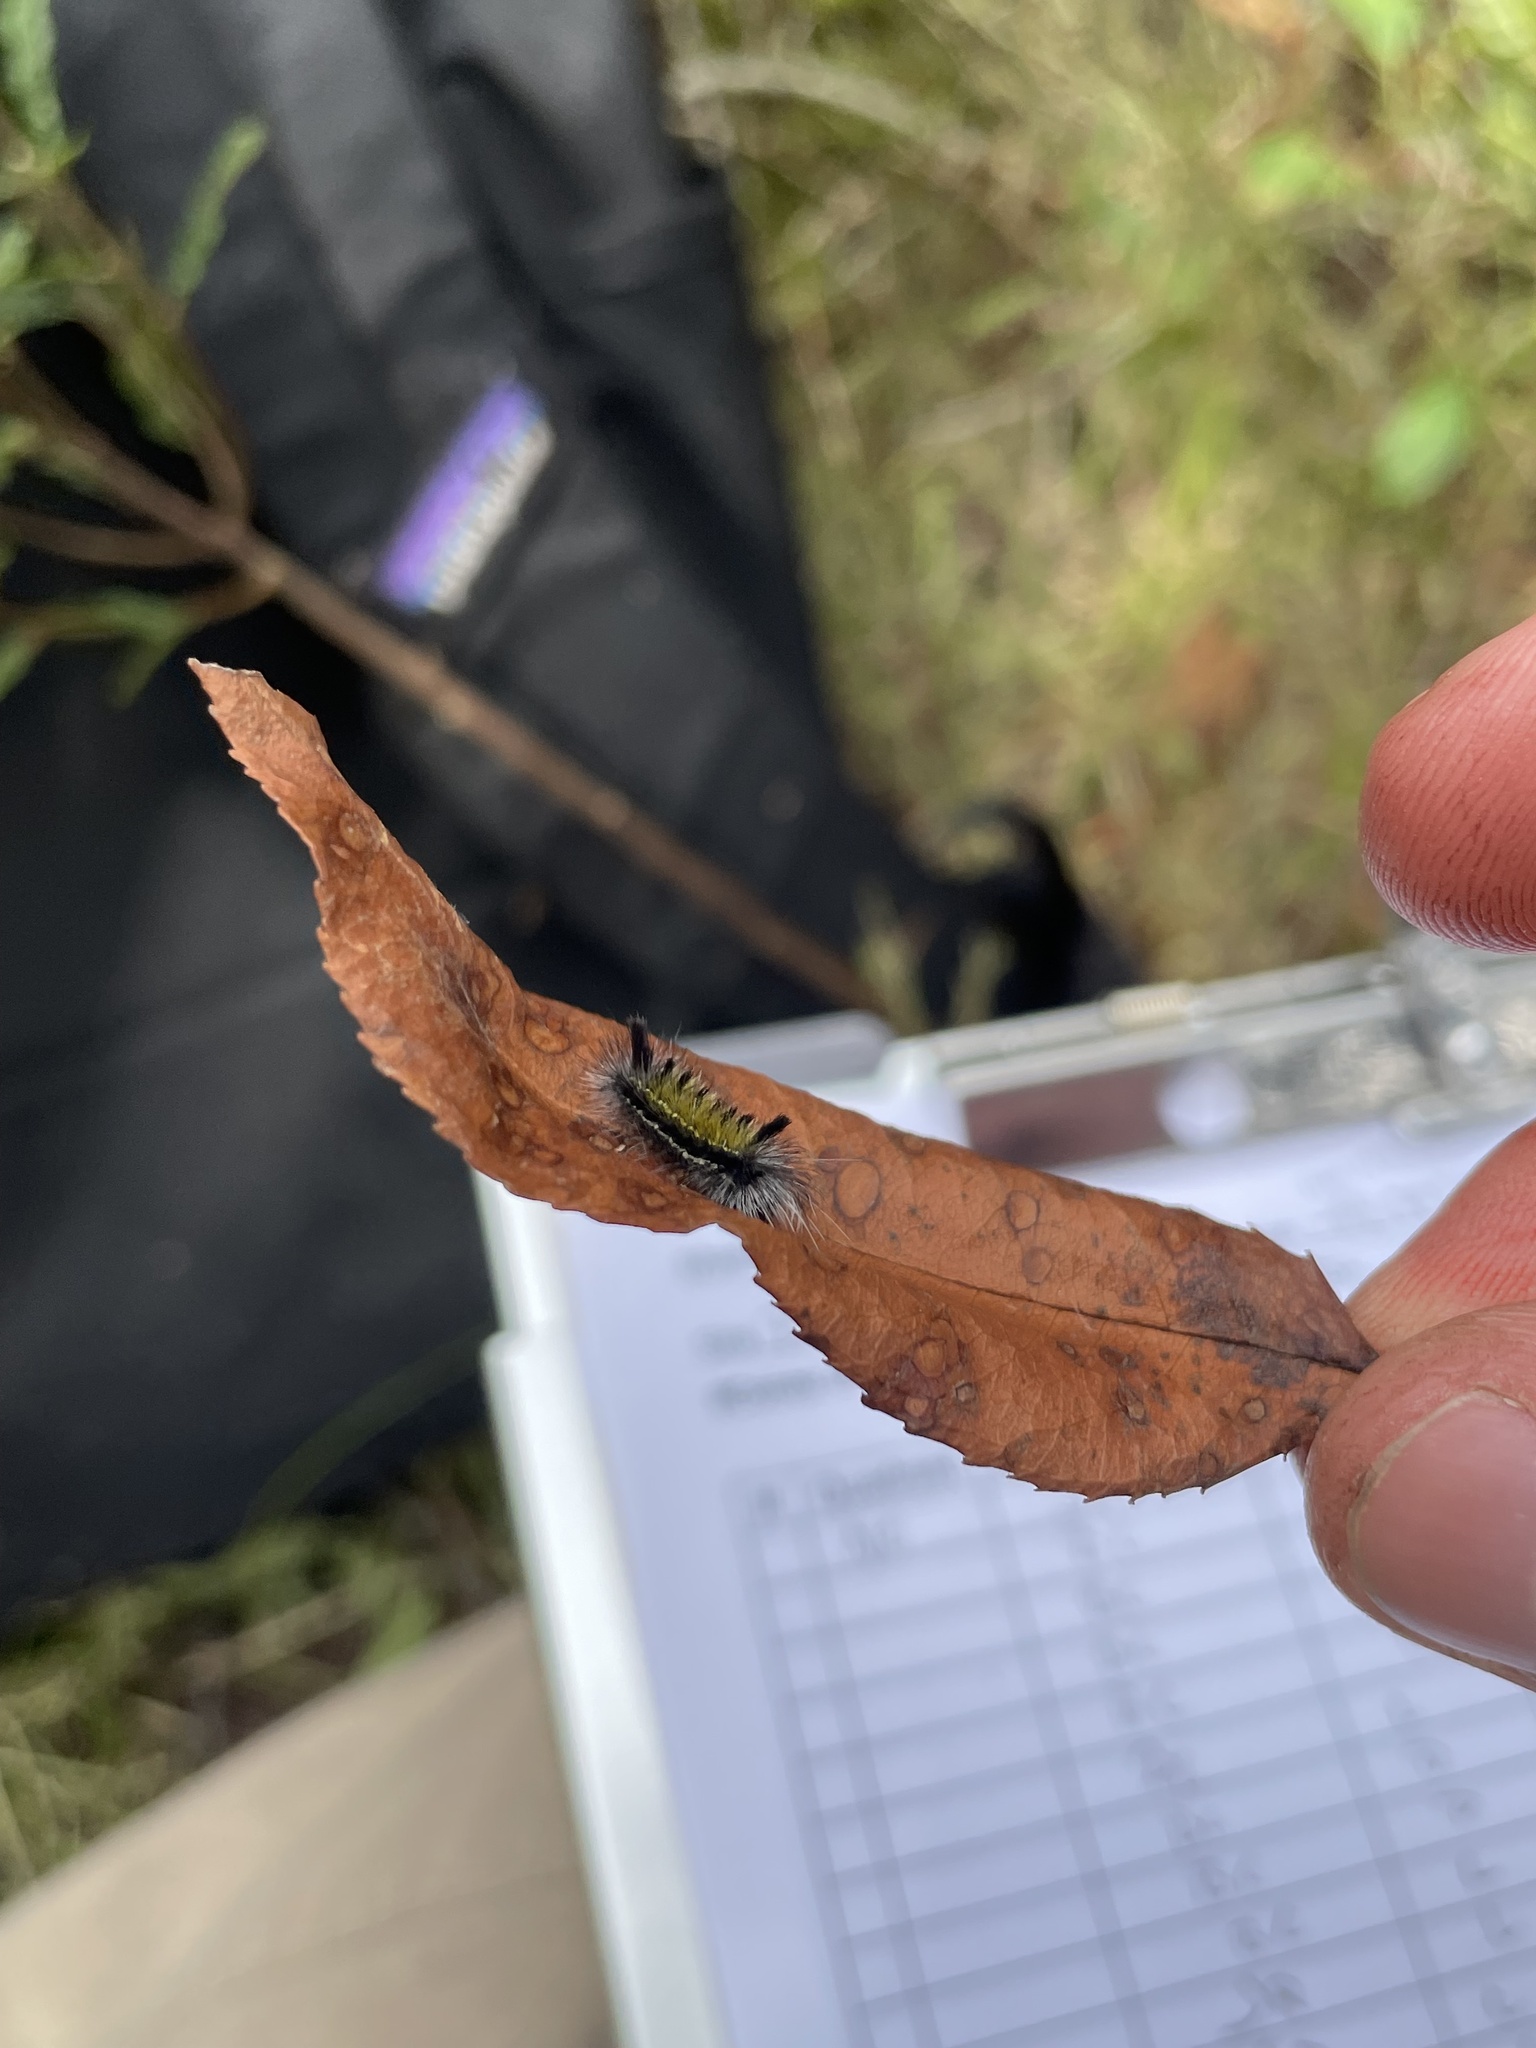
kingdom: Animalia
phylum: Arthropoda
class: Insecta
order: Lepidoptera
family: Erebidae
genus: Ctenucha
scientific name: Ctenucha virginica
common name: Virginia ctenucha moth
